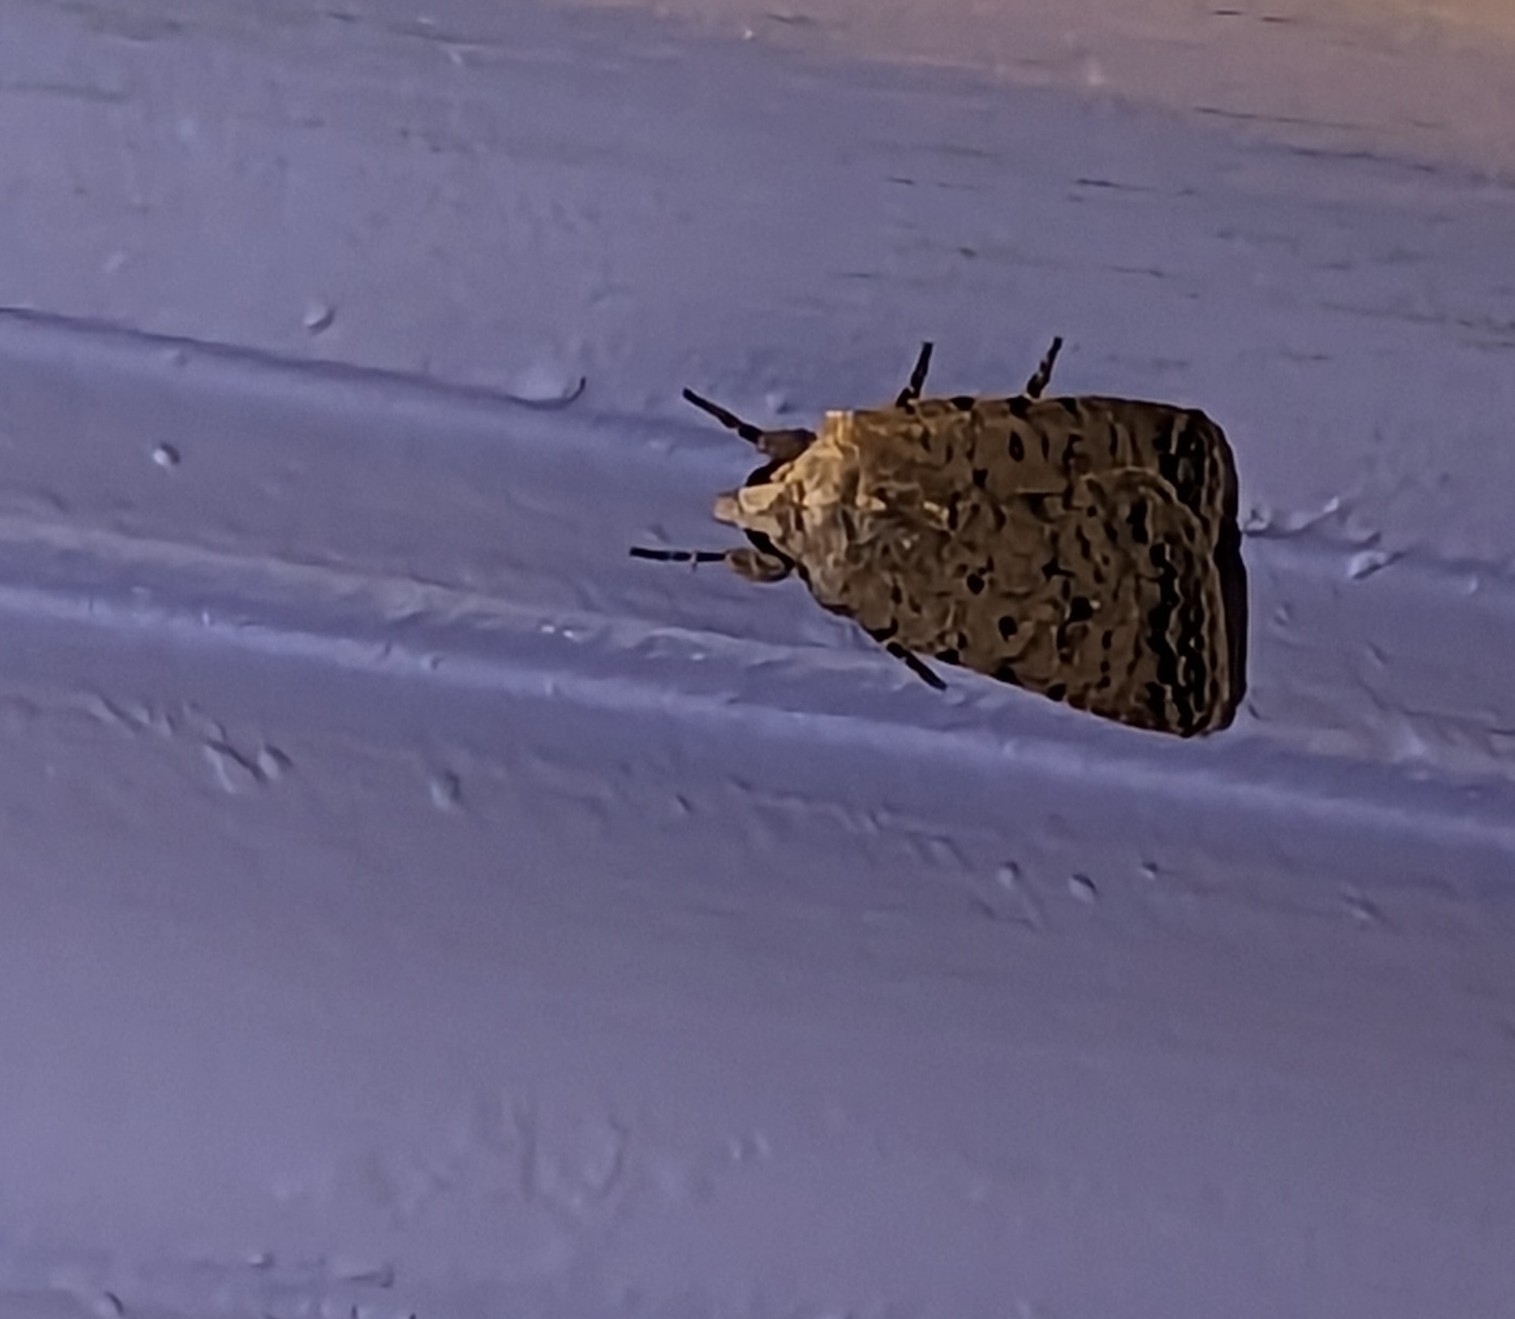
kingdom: Animalia
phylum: Arthropoda
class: Insecta
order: Lepidoptera
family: Noctuidae
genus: Caradrina
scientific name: Caradrina clavipalpis
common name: Pale mottled willow
